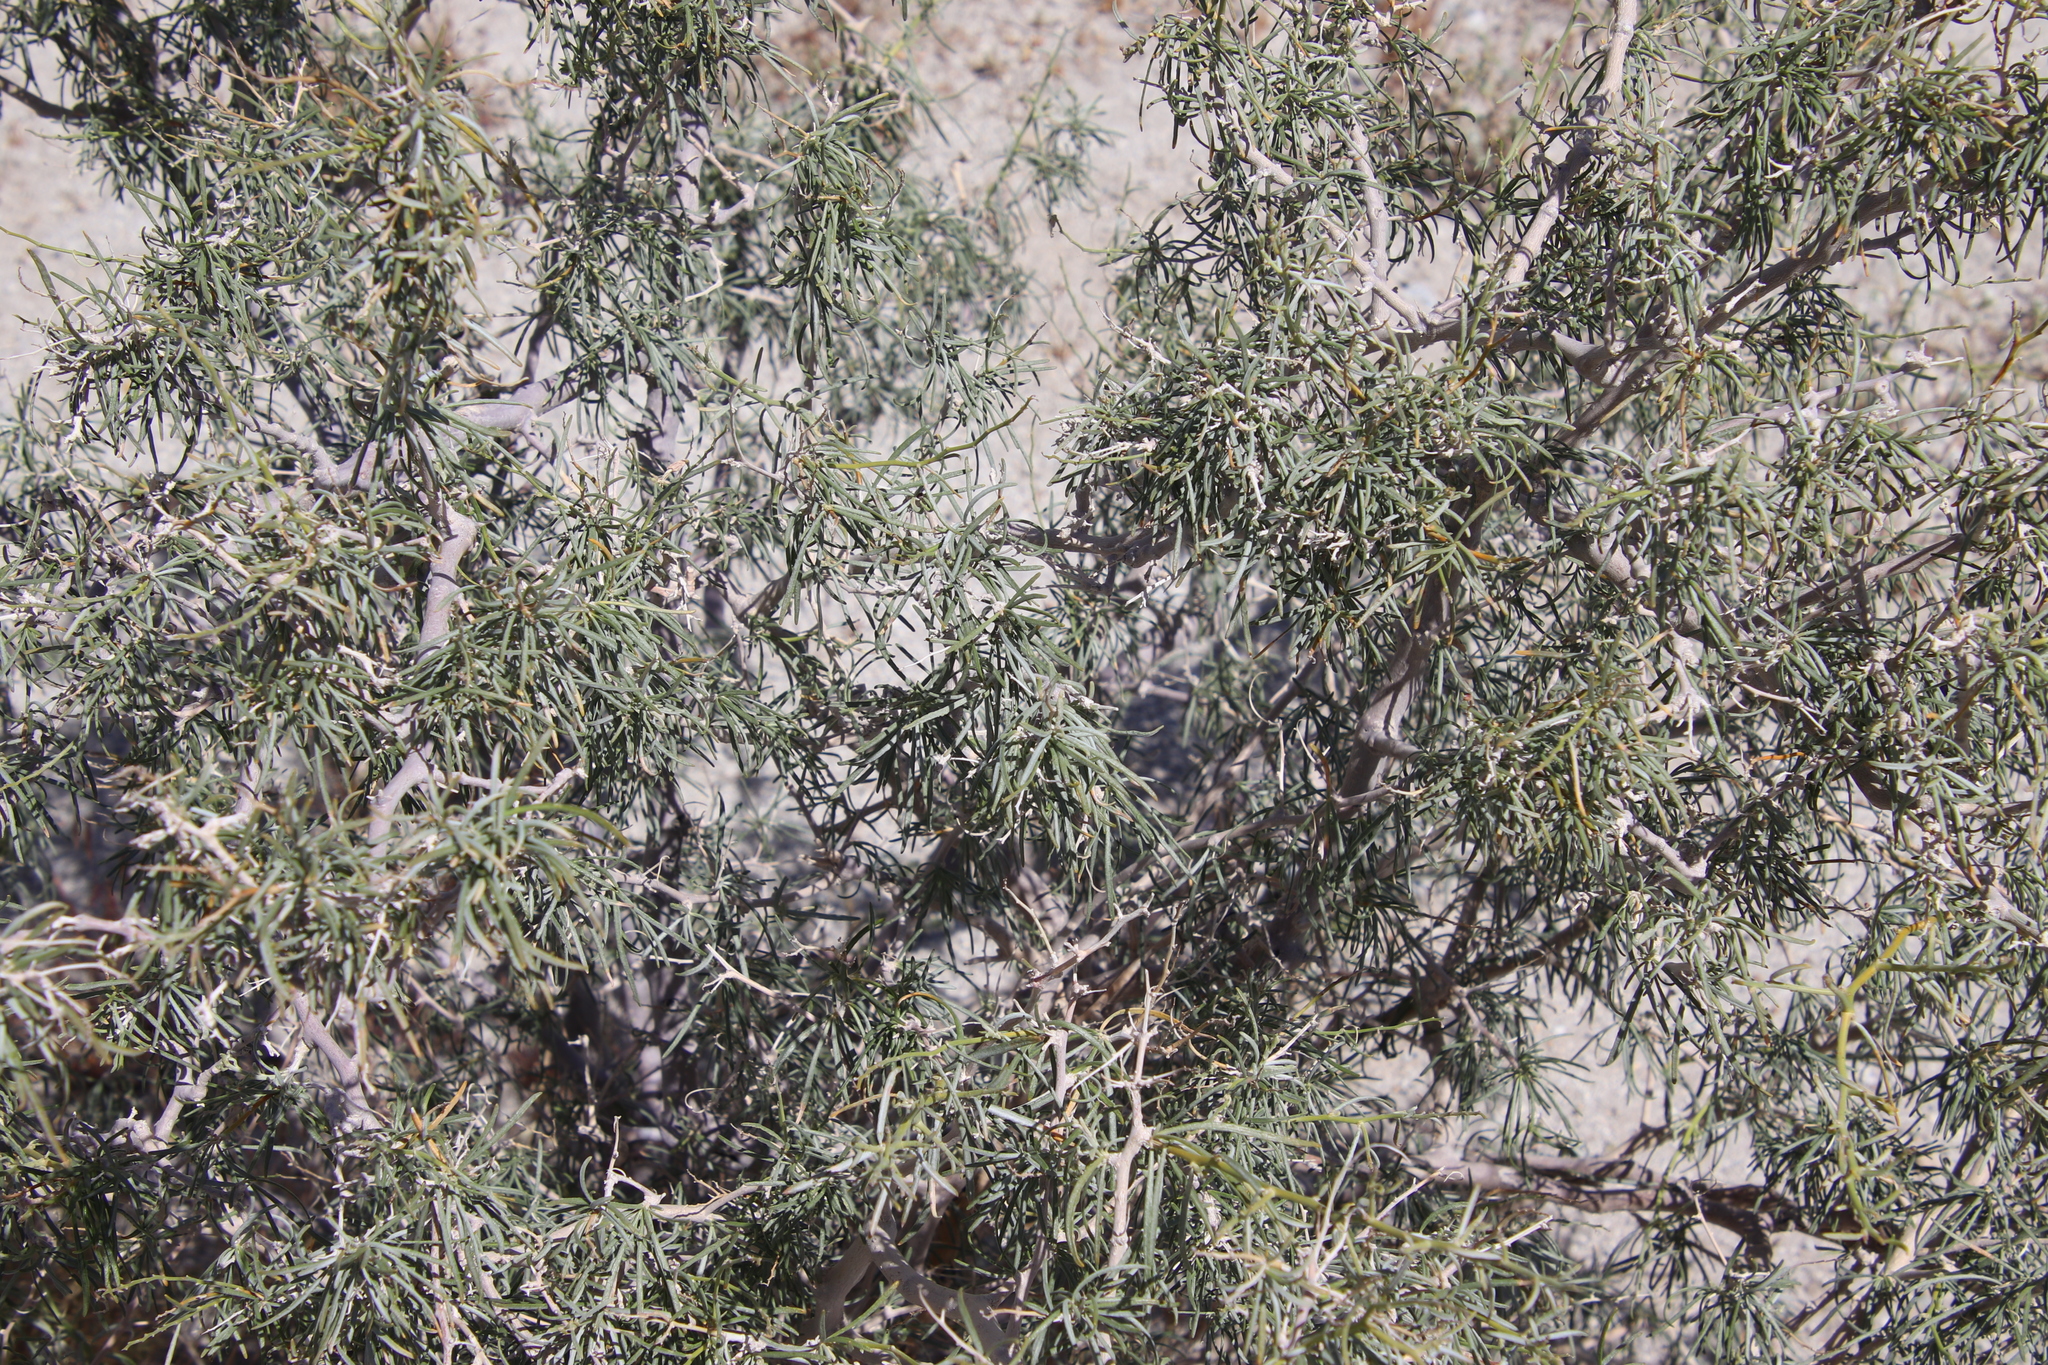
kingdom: Plantae
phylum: Tracheophyta
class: Magnoliopsida
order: Fabales
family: Fabaceae
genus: Psorothamnus
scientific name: Psorothamnus schottii
